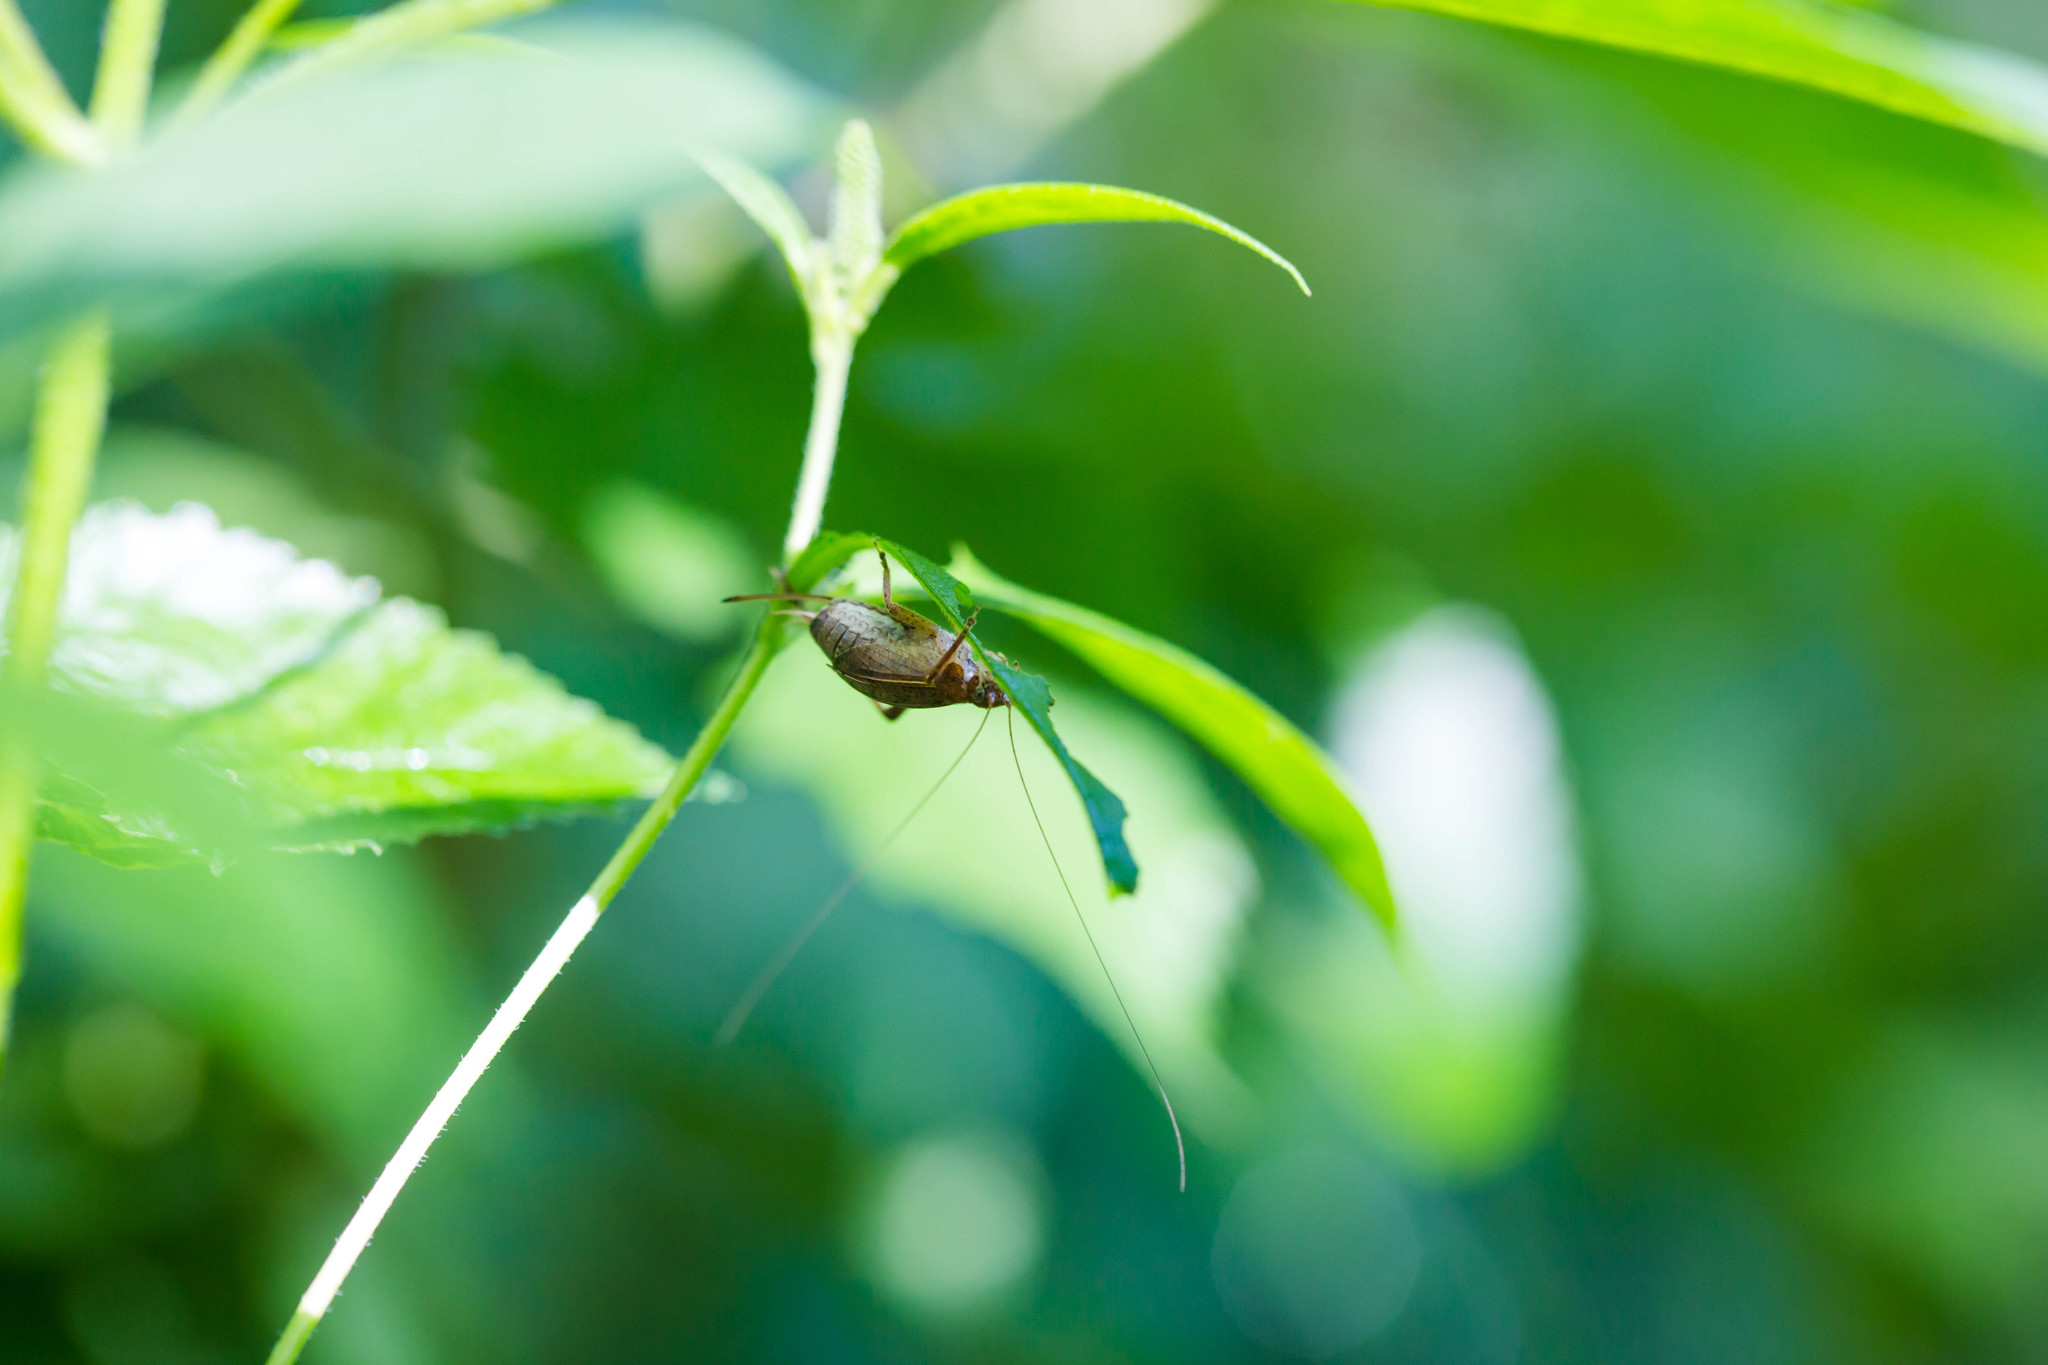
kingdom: Animalia
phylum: Arthropoda
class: Insecta
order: Orthoptera
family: Gryllidae
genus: Hapithus
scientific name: Hapithus agitator
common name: Restless bush cricket
